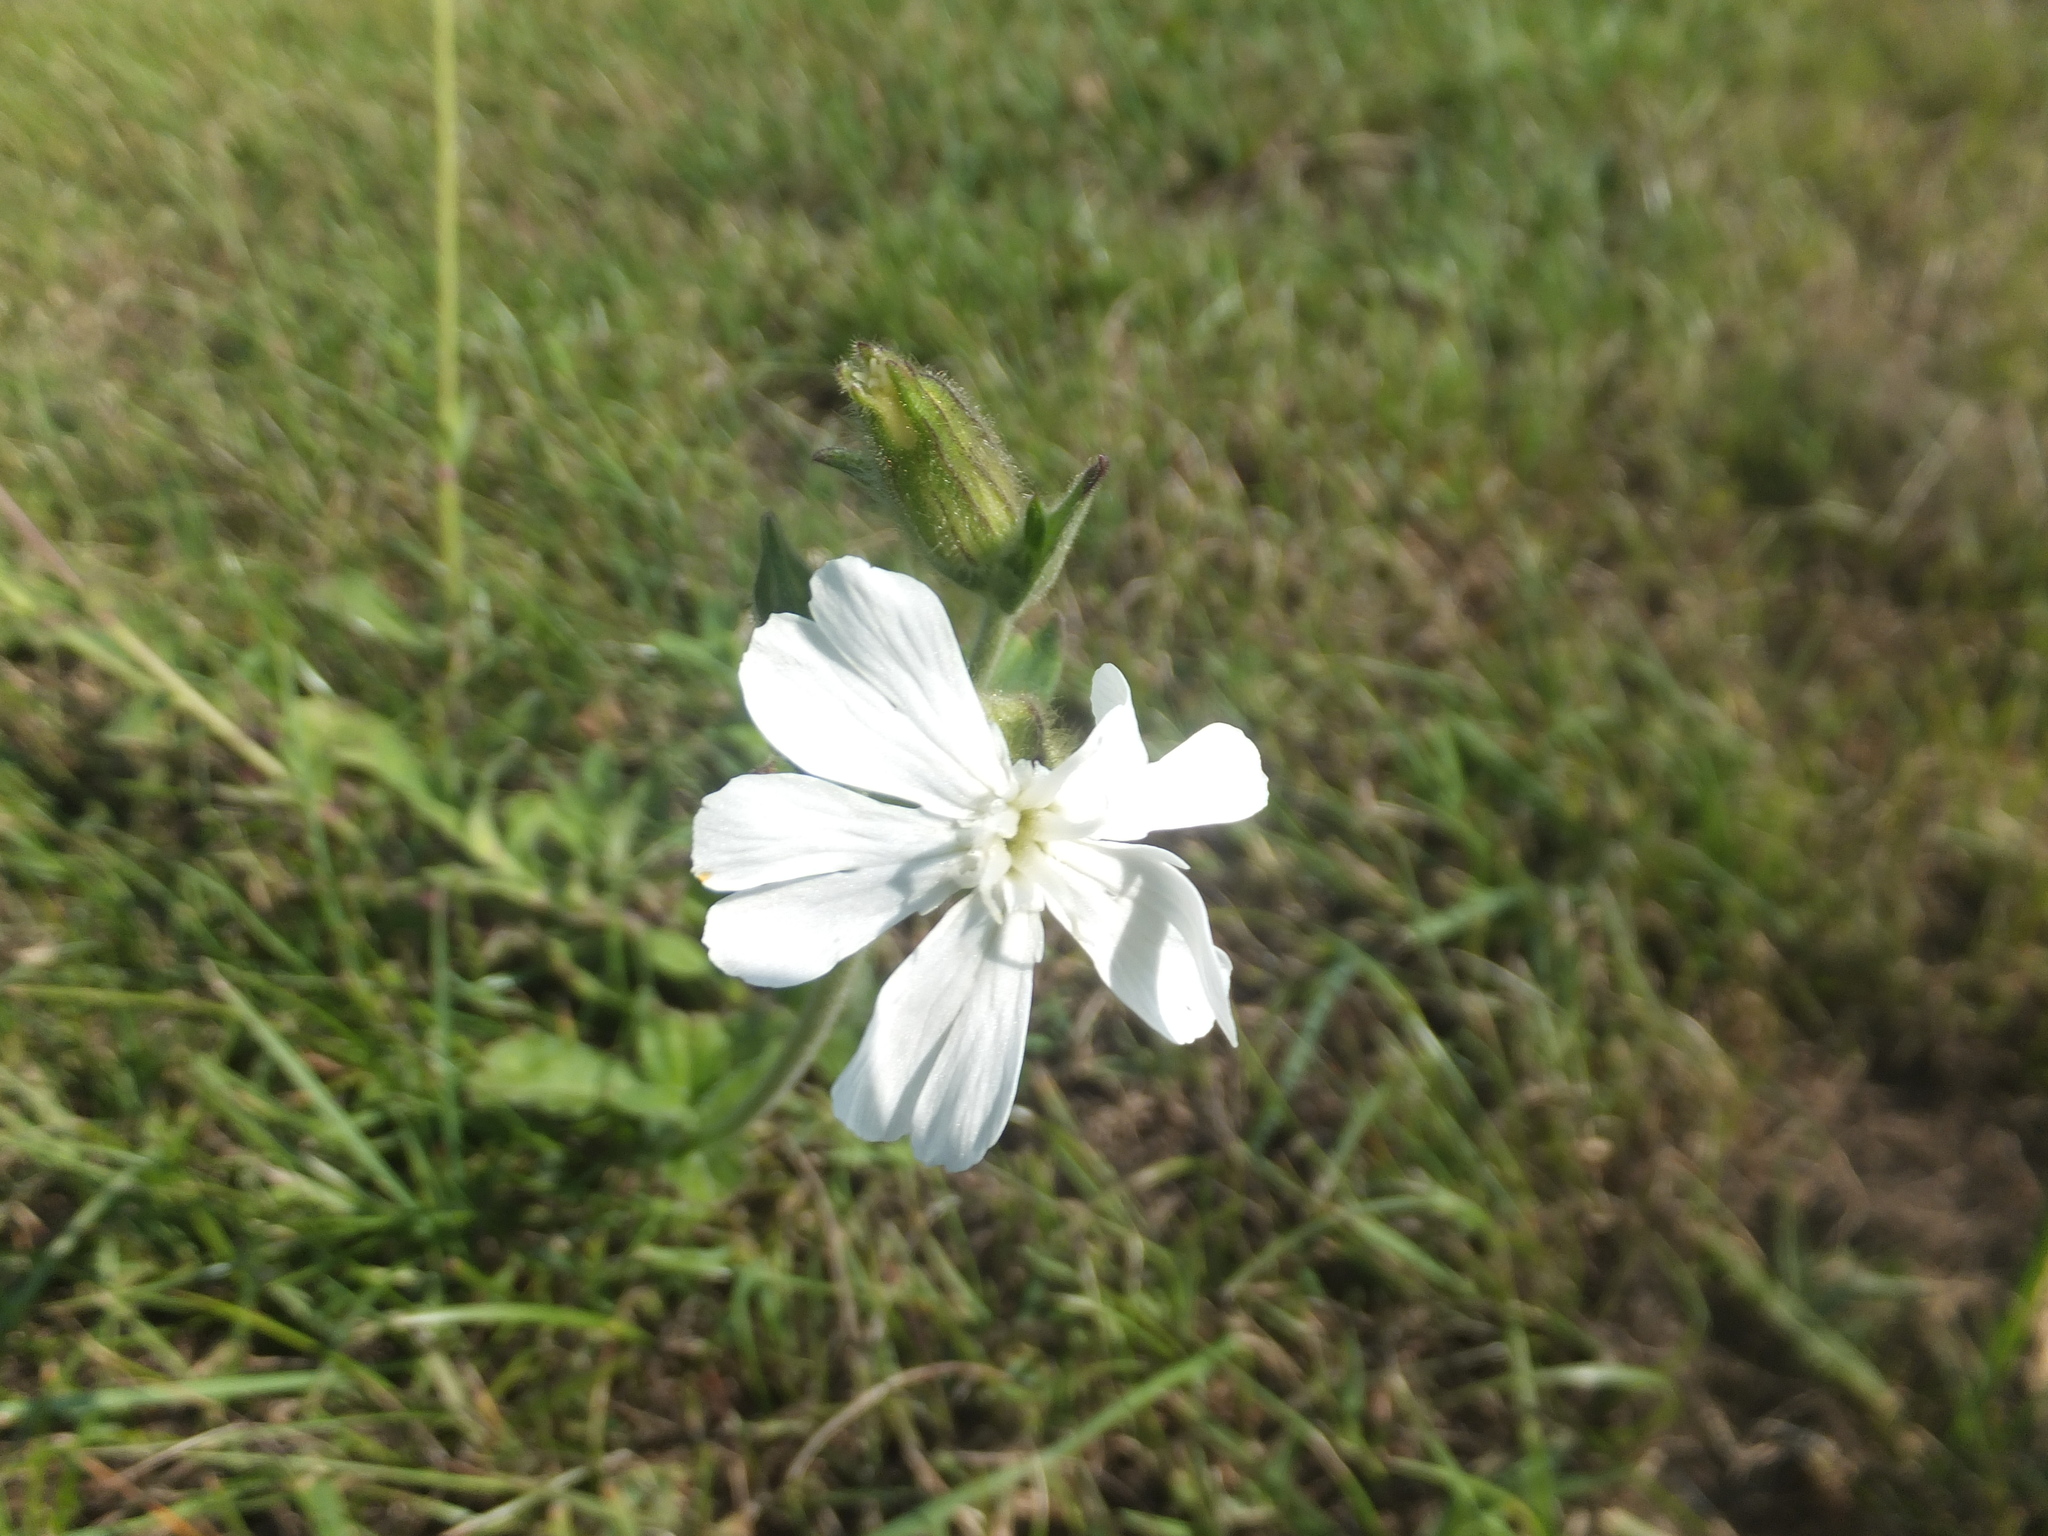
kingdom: Plantae
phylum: Tracheophyta
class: Magnoliopsida
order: Caryophyllales
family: Caryophyllaceae
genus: Silene
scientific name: Silene latifolia
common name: White campion
